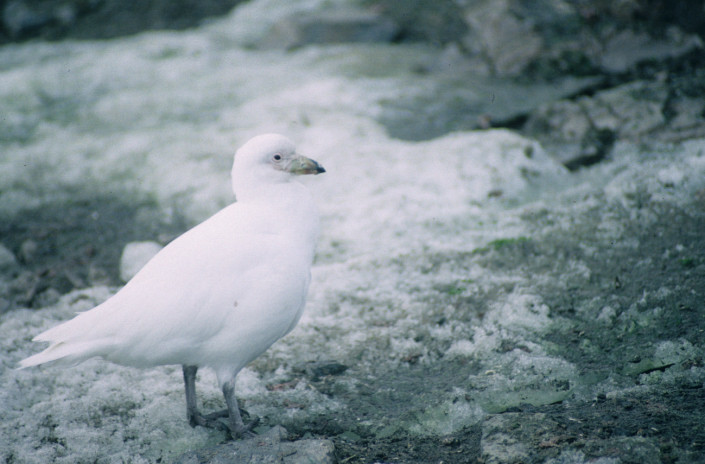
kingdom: Animalia
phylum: Chordata
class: Aves
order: Charadriiformes
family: Chionidae
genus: Chionis
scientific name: Chionis albus
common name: Snowy sheathbill
